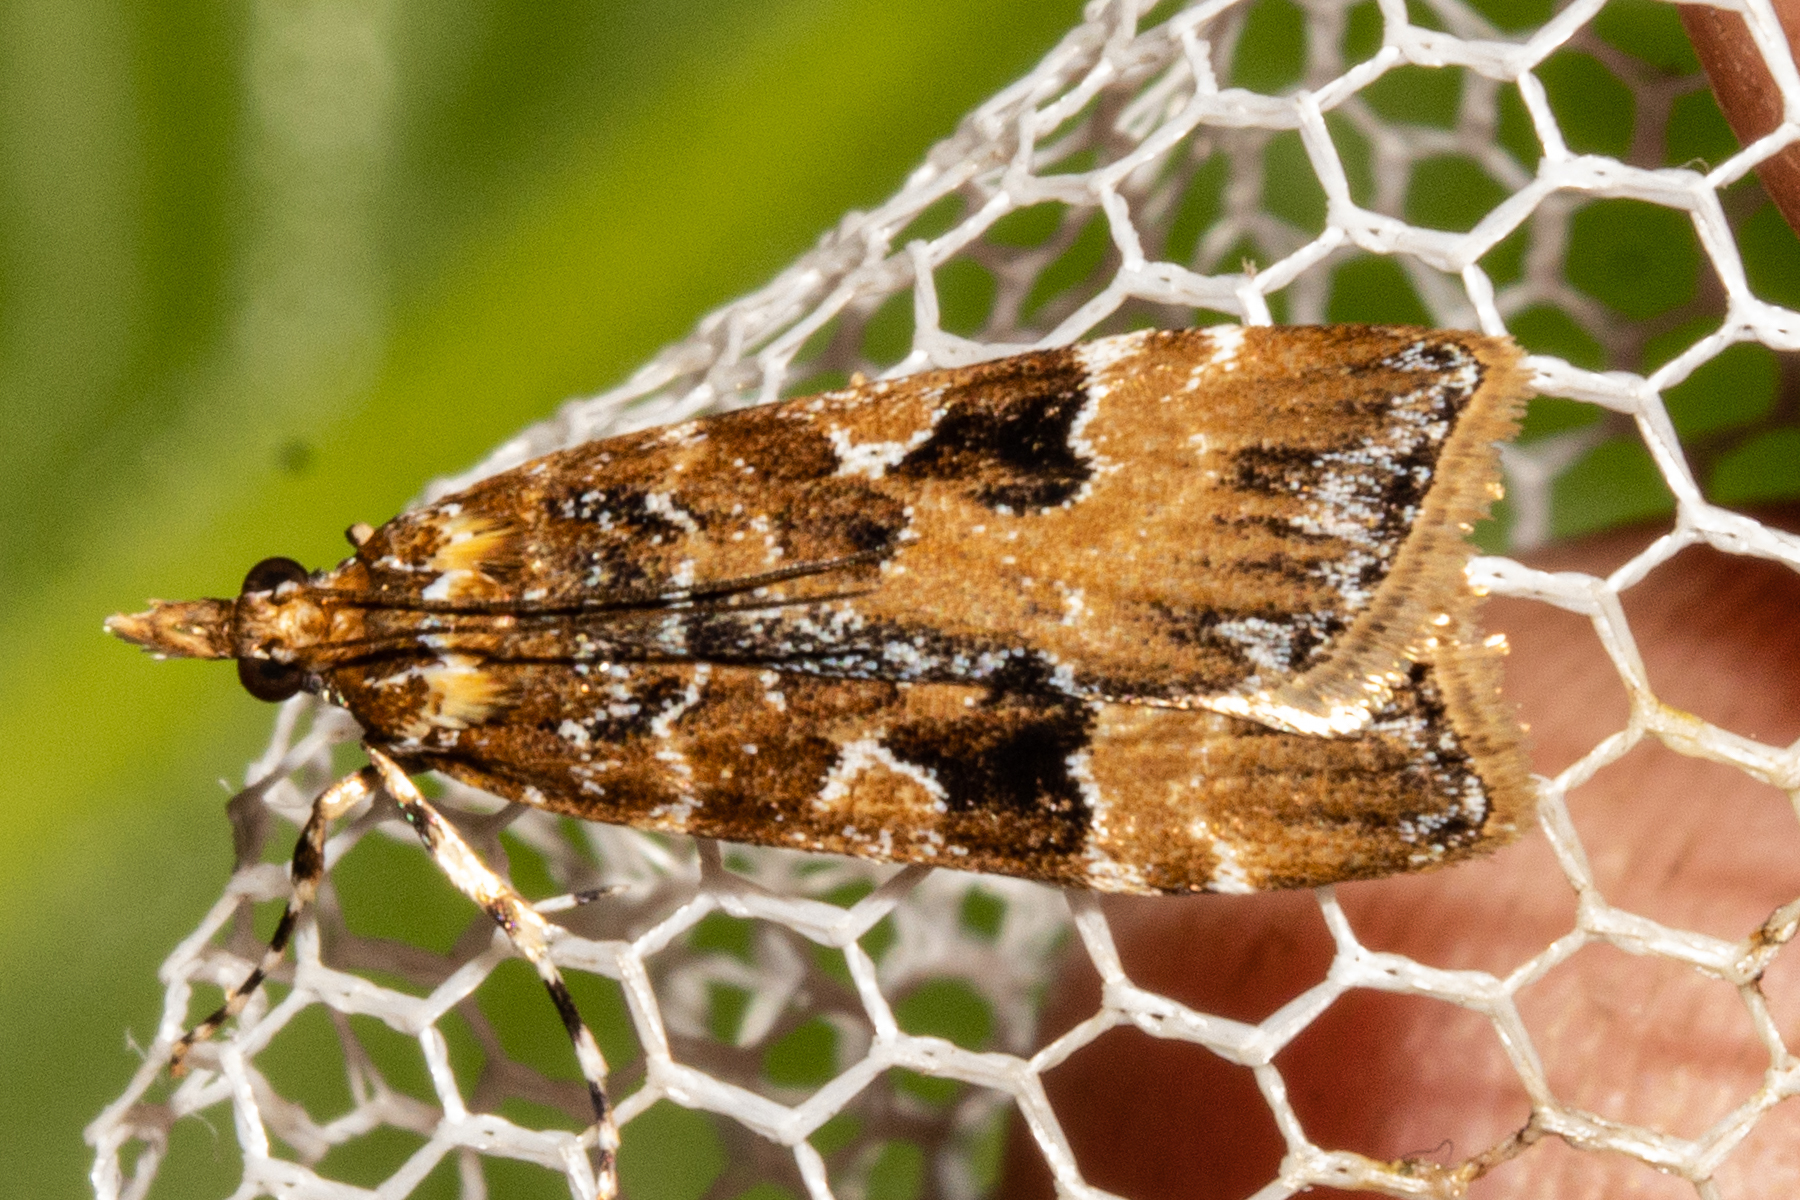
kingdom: Animalia
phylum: Arthropoda
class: Insecta
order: Lepidoptera
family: Crambidae
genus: Scoparia
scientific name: Scoparia ustimacula
